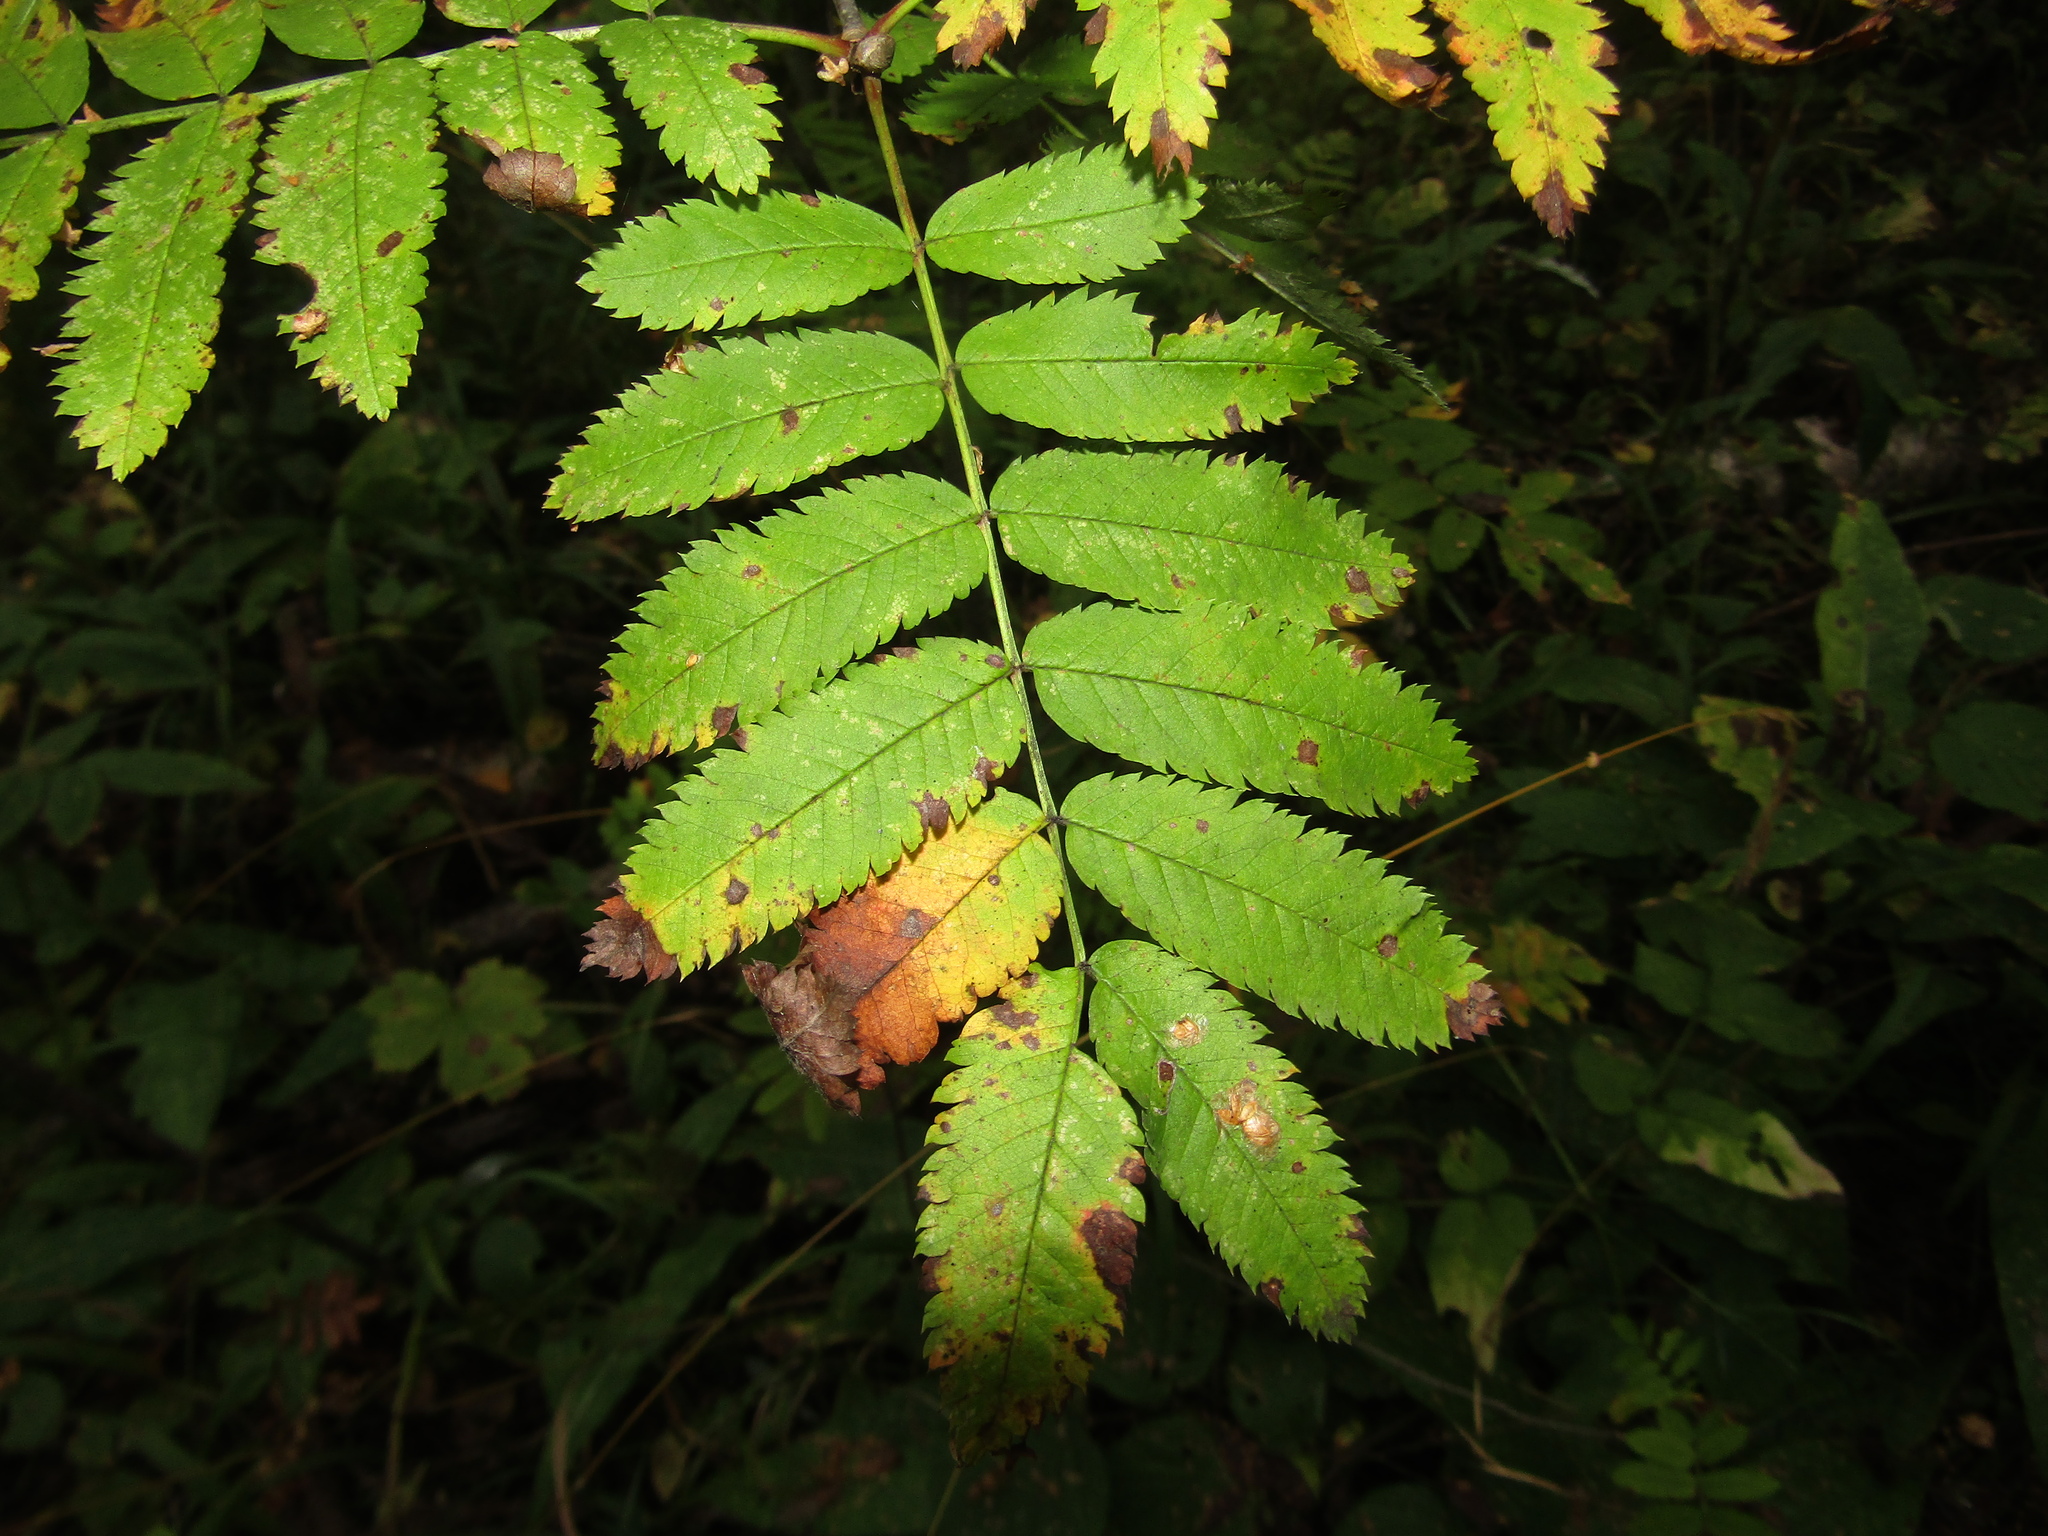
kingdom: Plantae
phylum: Tracheophyta
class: Magnoliopsida
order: Rosales
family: Rosaceae
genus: Sorbus
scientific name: Sorbus aucuparia
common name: Rowan
